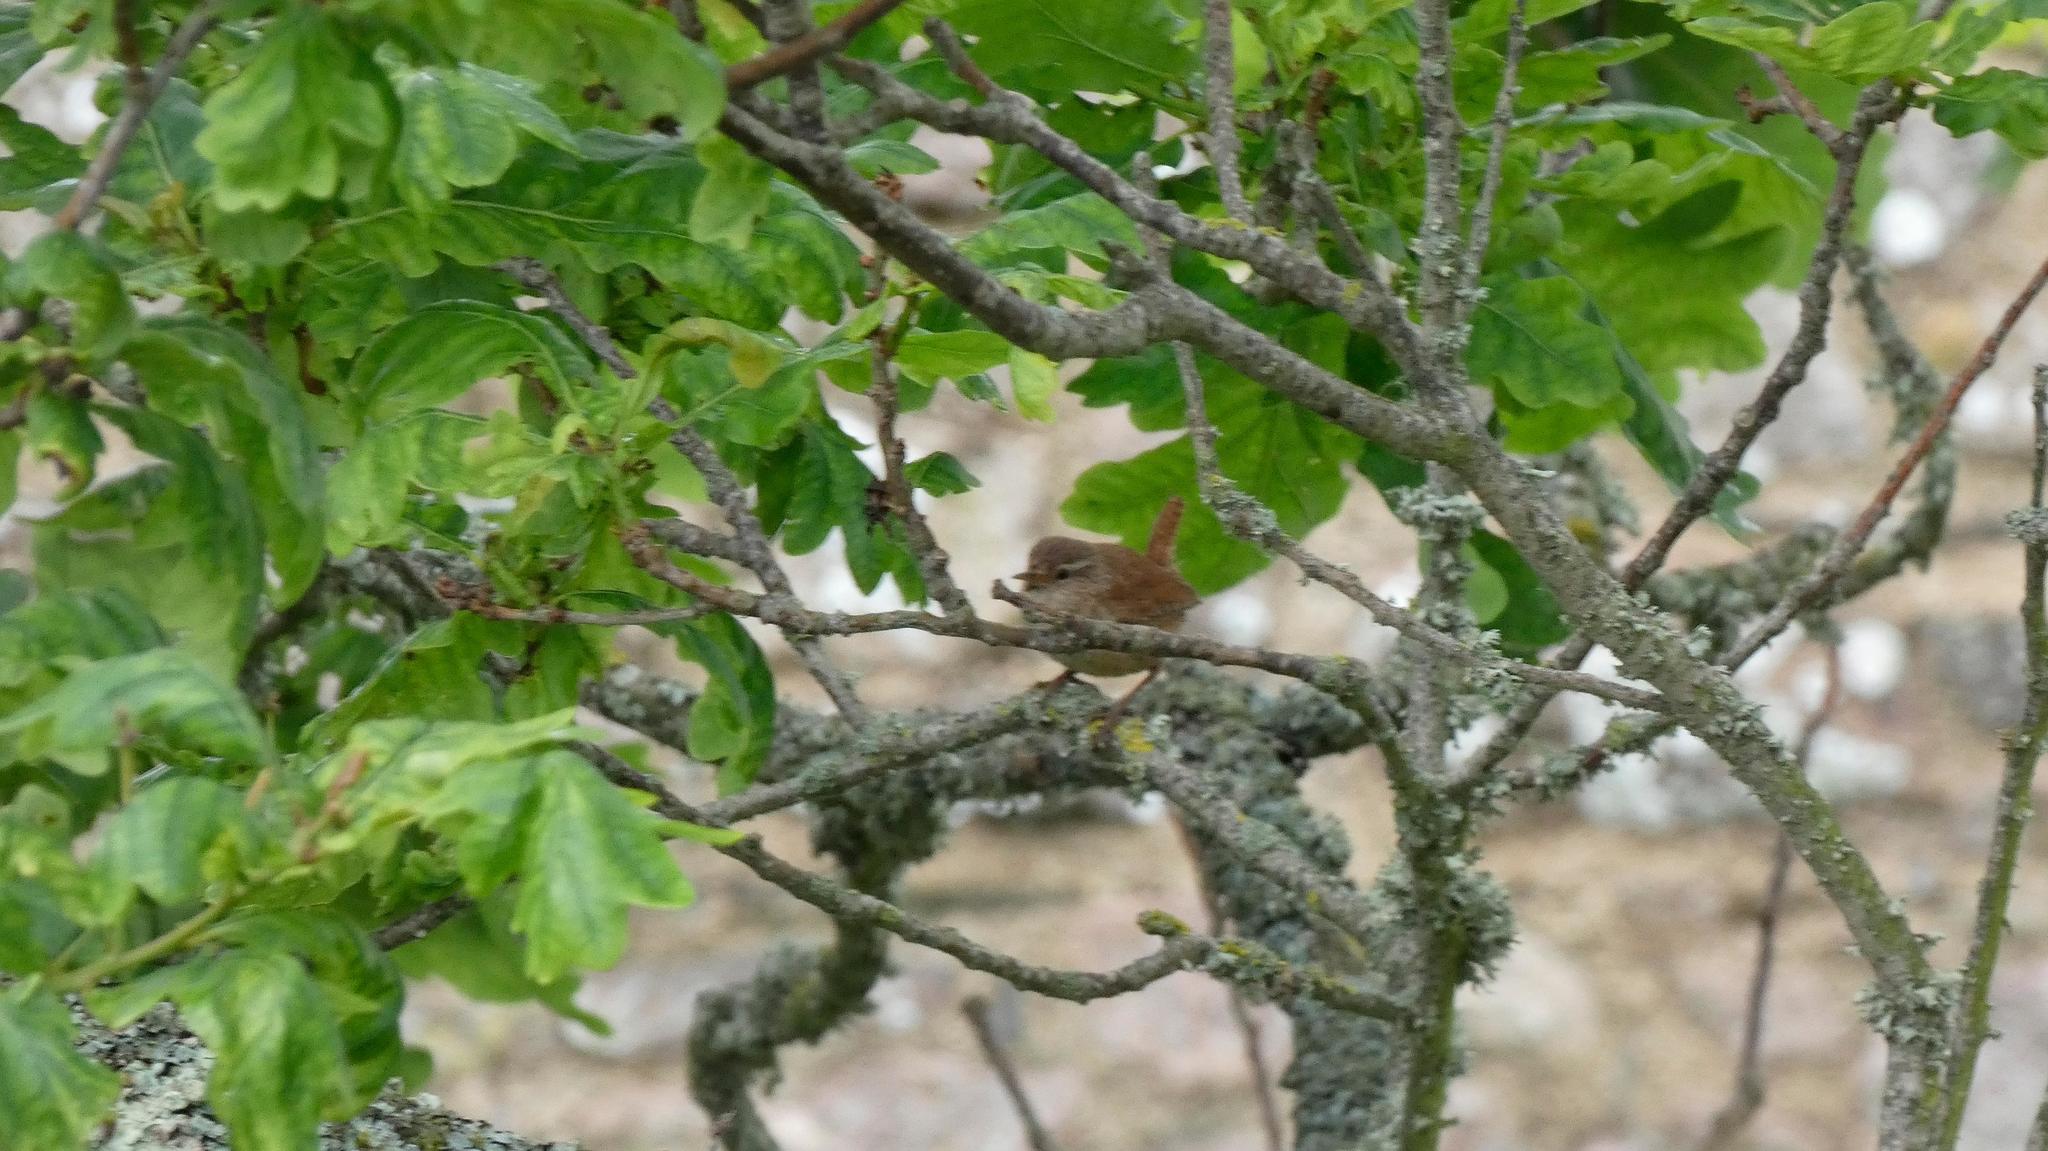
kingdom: Animalia
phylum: Chordata
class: Aves
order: Passeriformes
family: Troglodytidae
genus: Troglodytes
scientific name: Troglodytes troglodytes
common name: Eurasian wren
